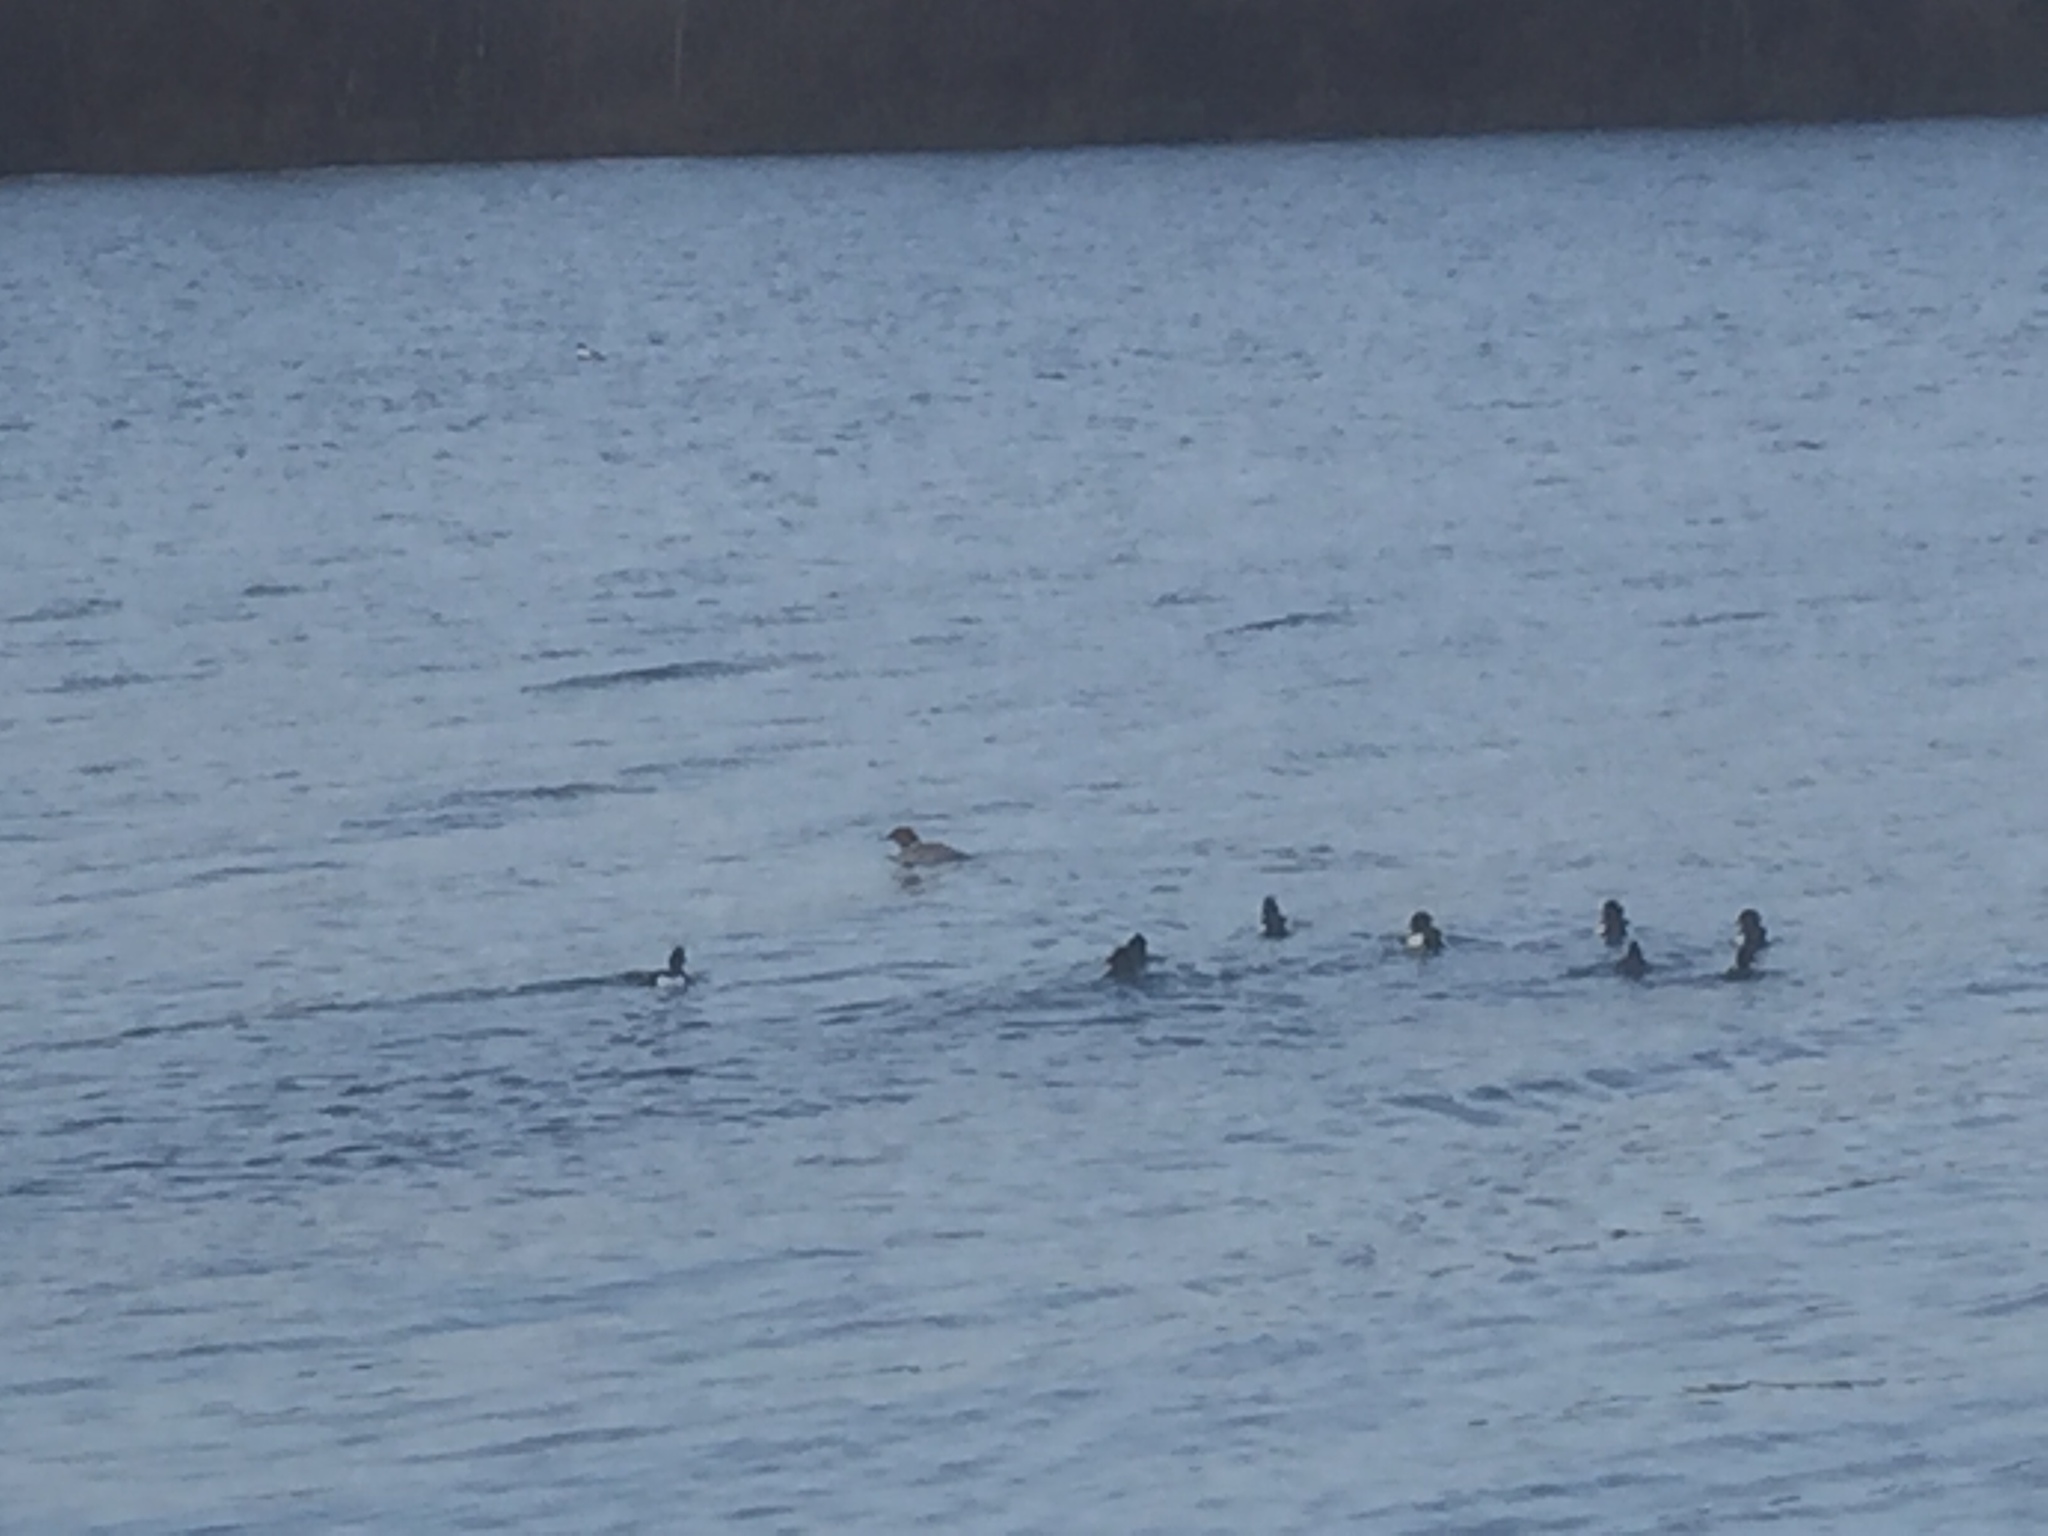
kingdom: Animalia
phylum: Chordata
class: Aves
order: Anseriformes
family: Anatidae
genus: Mergus
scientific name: Mergus merganser
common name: Common merganser
